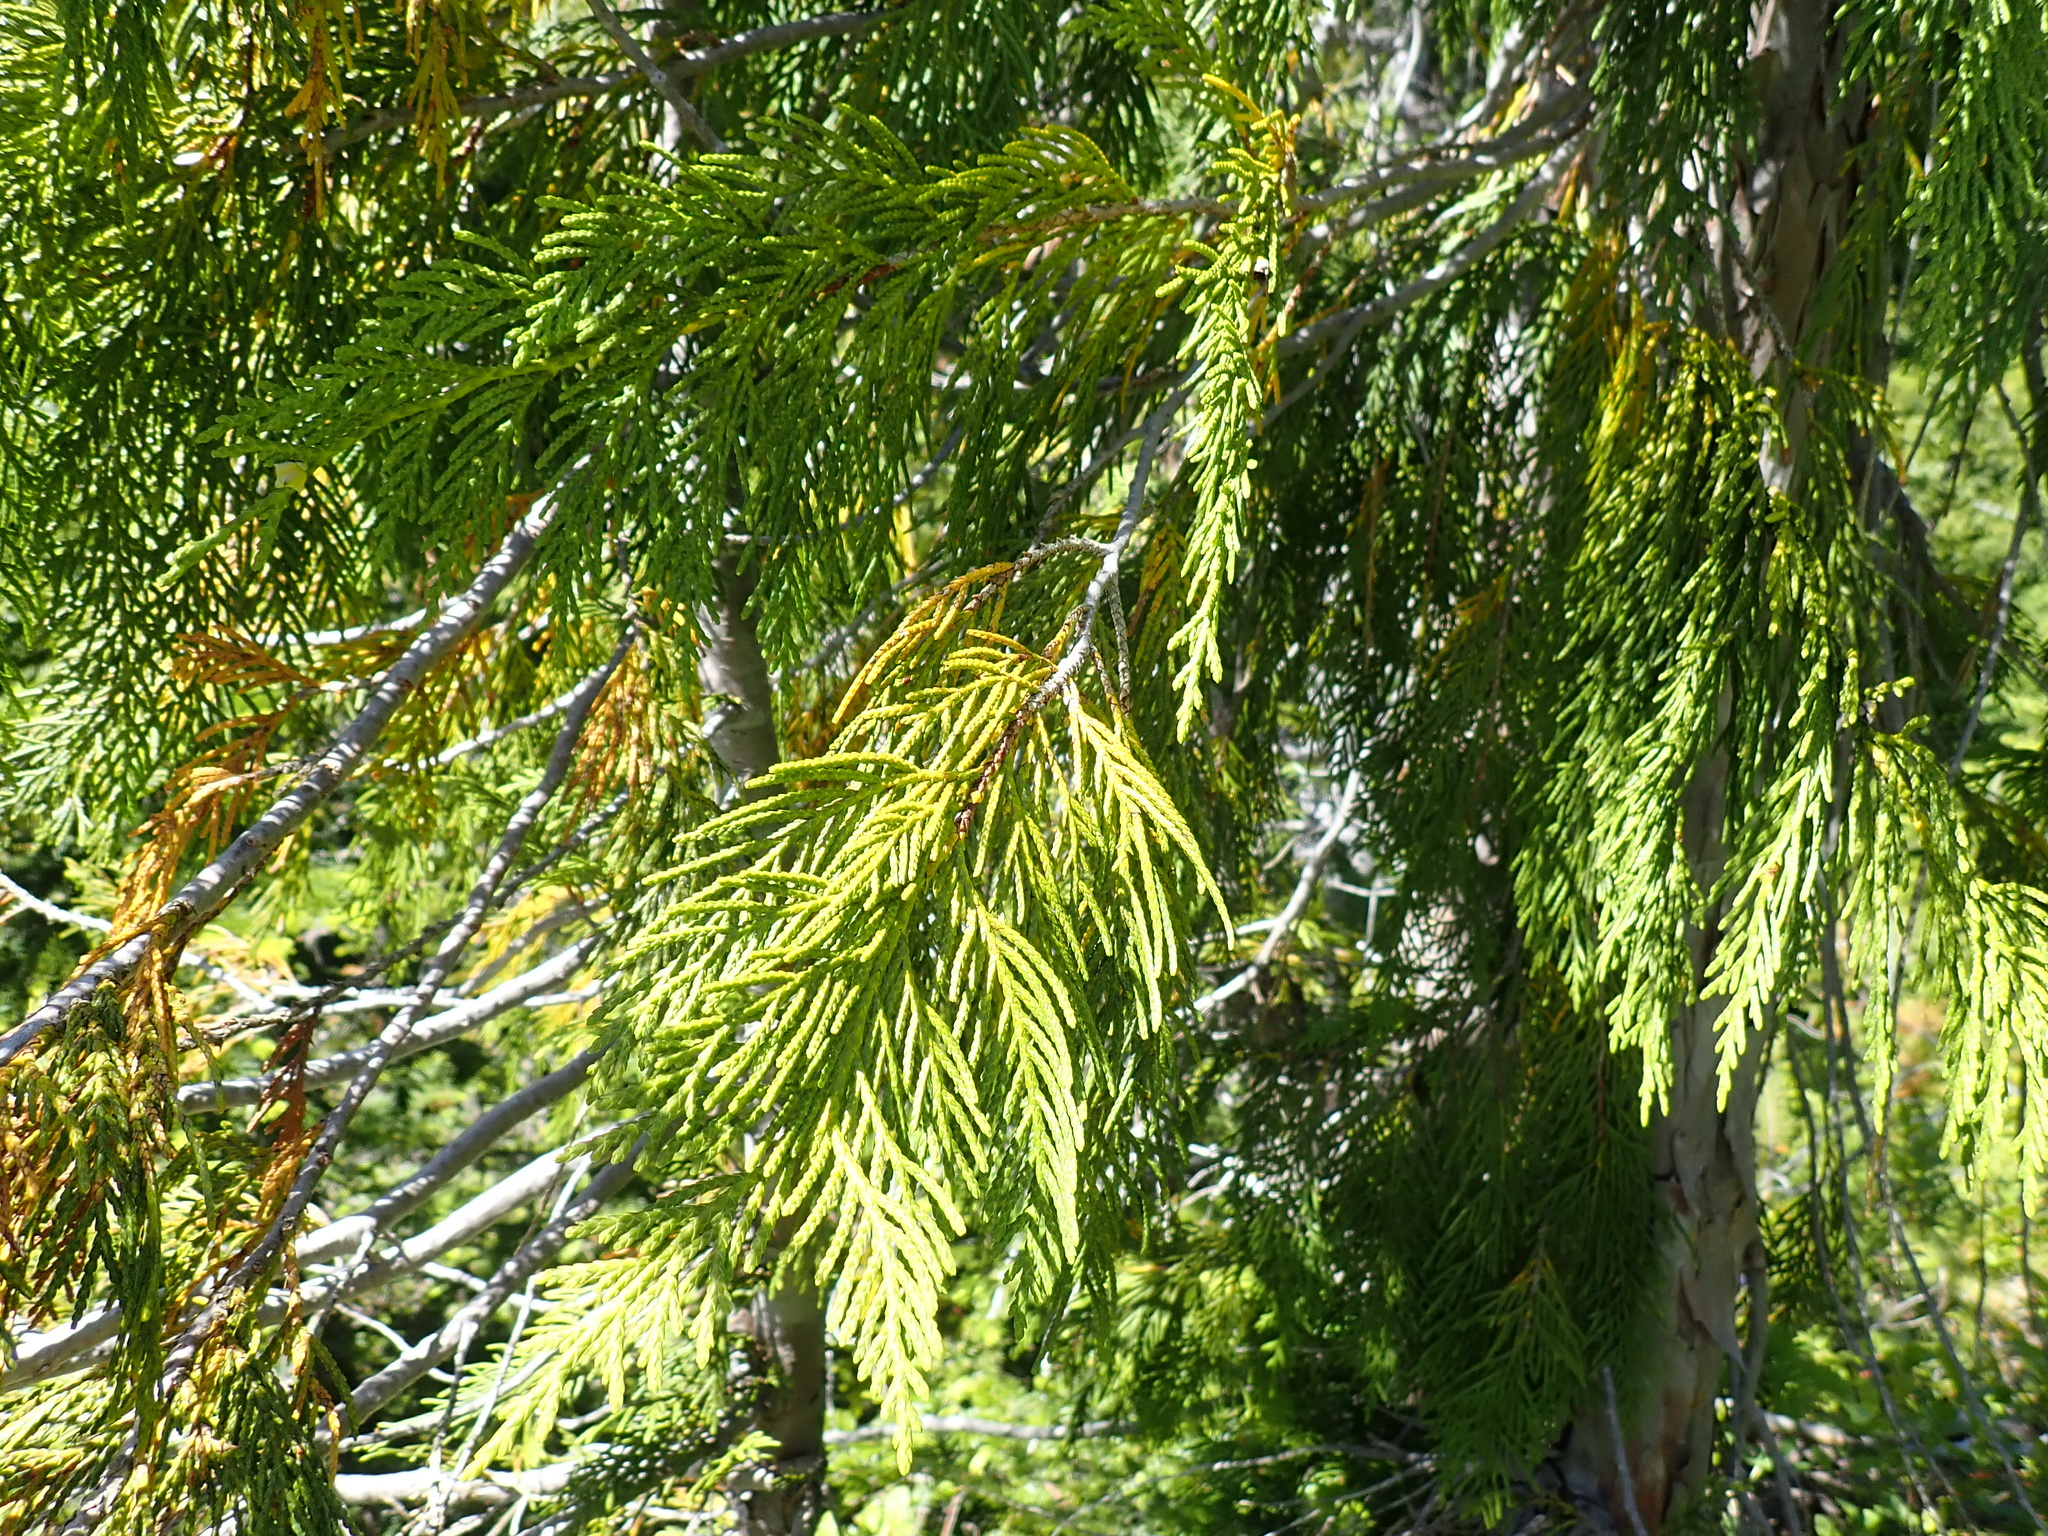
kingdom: Plantae
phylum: Tracheophyta
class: Pinopsida
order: Pinales
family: Cupressaceae
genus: Xanthocyparis
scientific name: Xanthocyparis nootkatensis
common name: Nootka cypress
